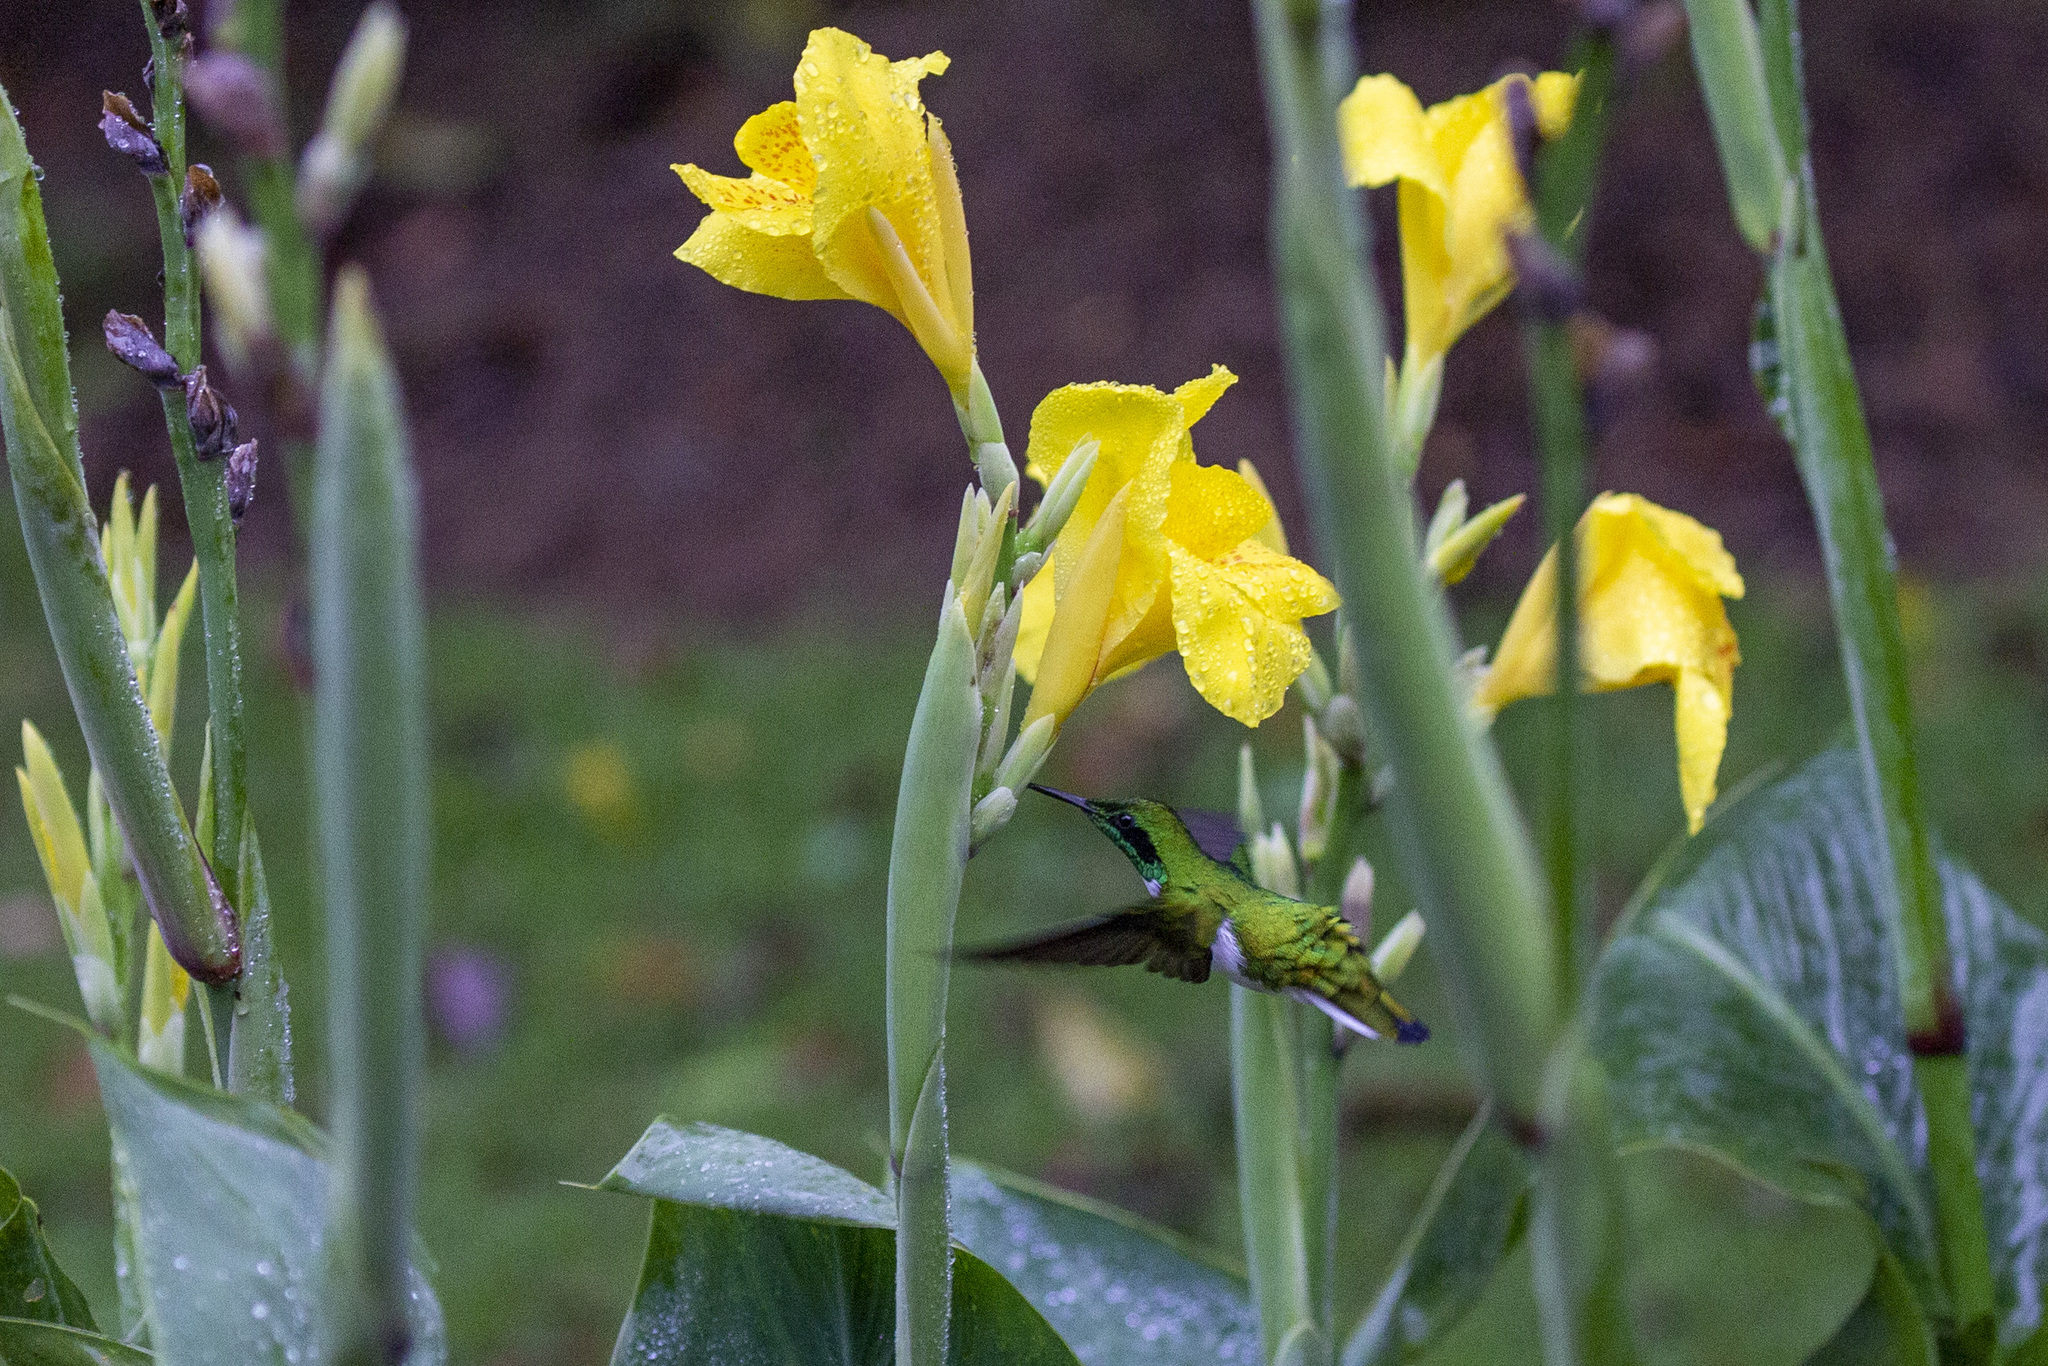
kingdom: Animalia
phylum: Chordata
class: Aves
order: Apodiformes
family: Trochilidae
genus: Heliothryx
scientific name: Heliothryx auritus
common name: Black-eared fairy
